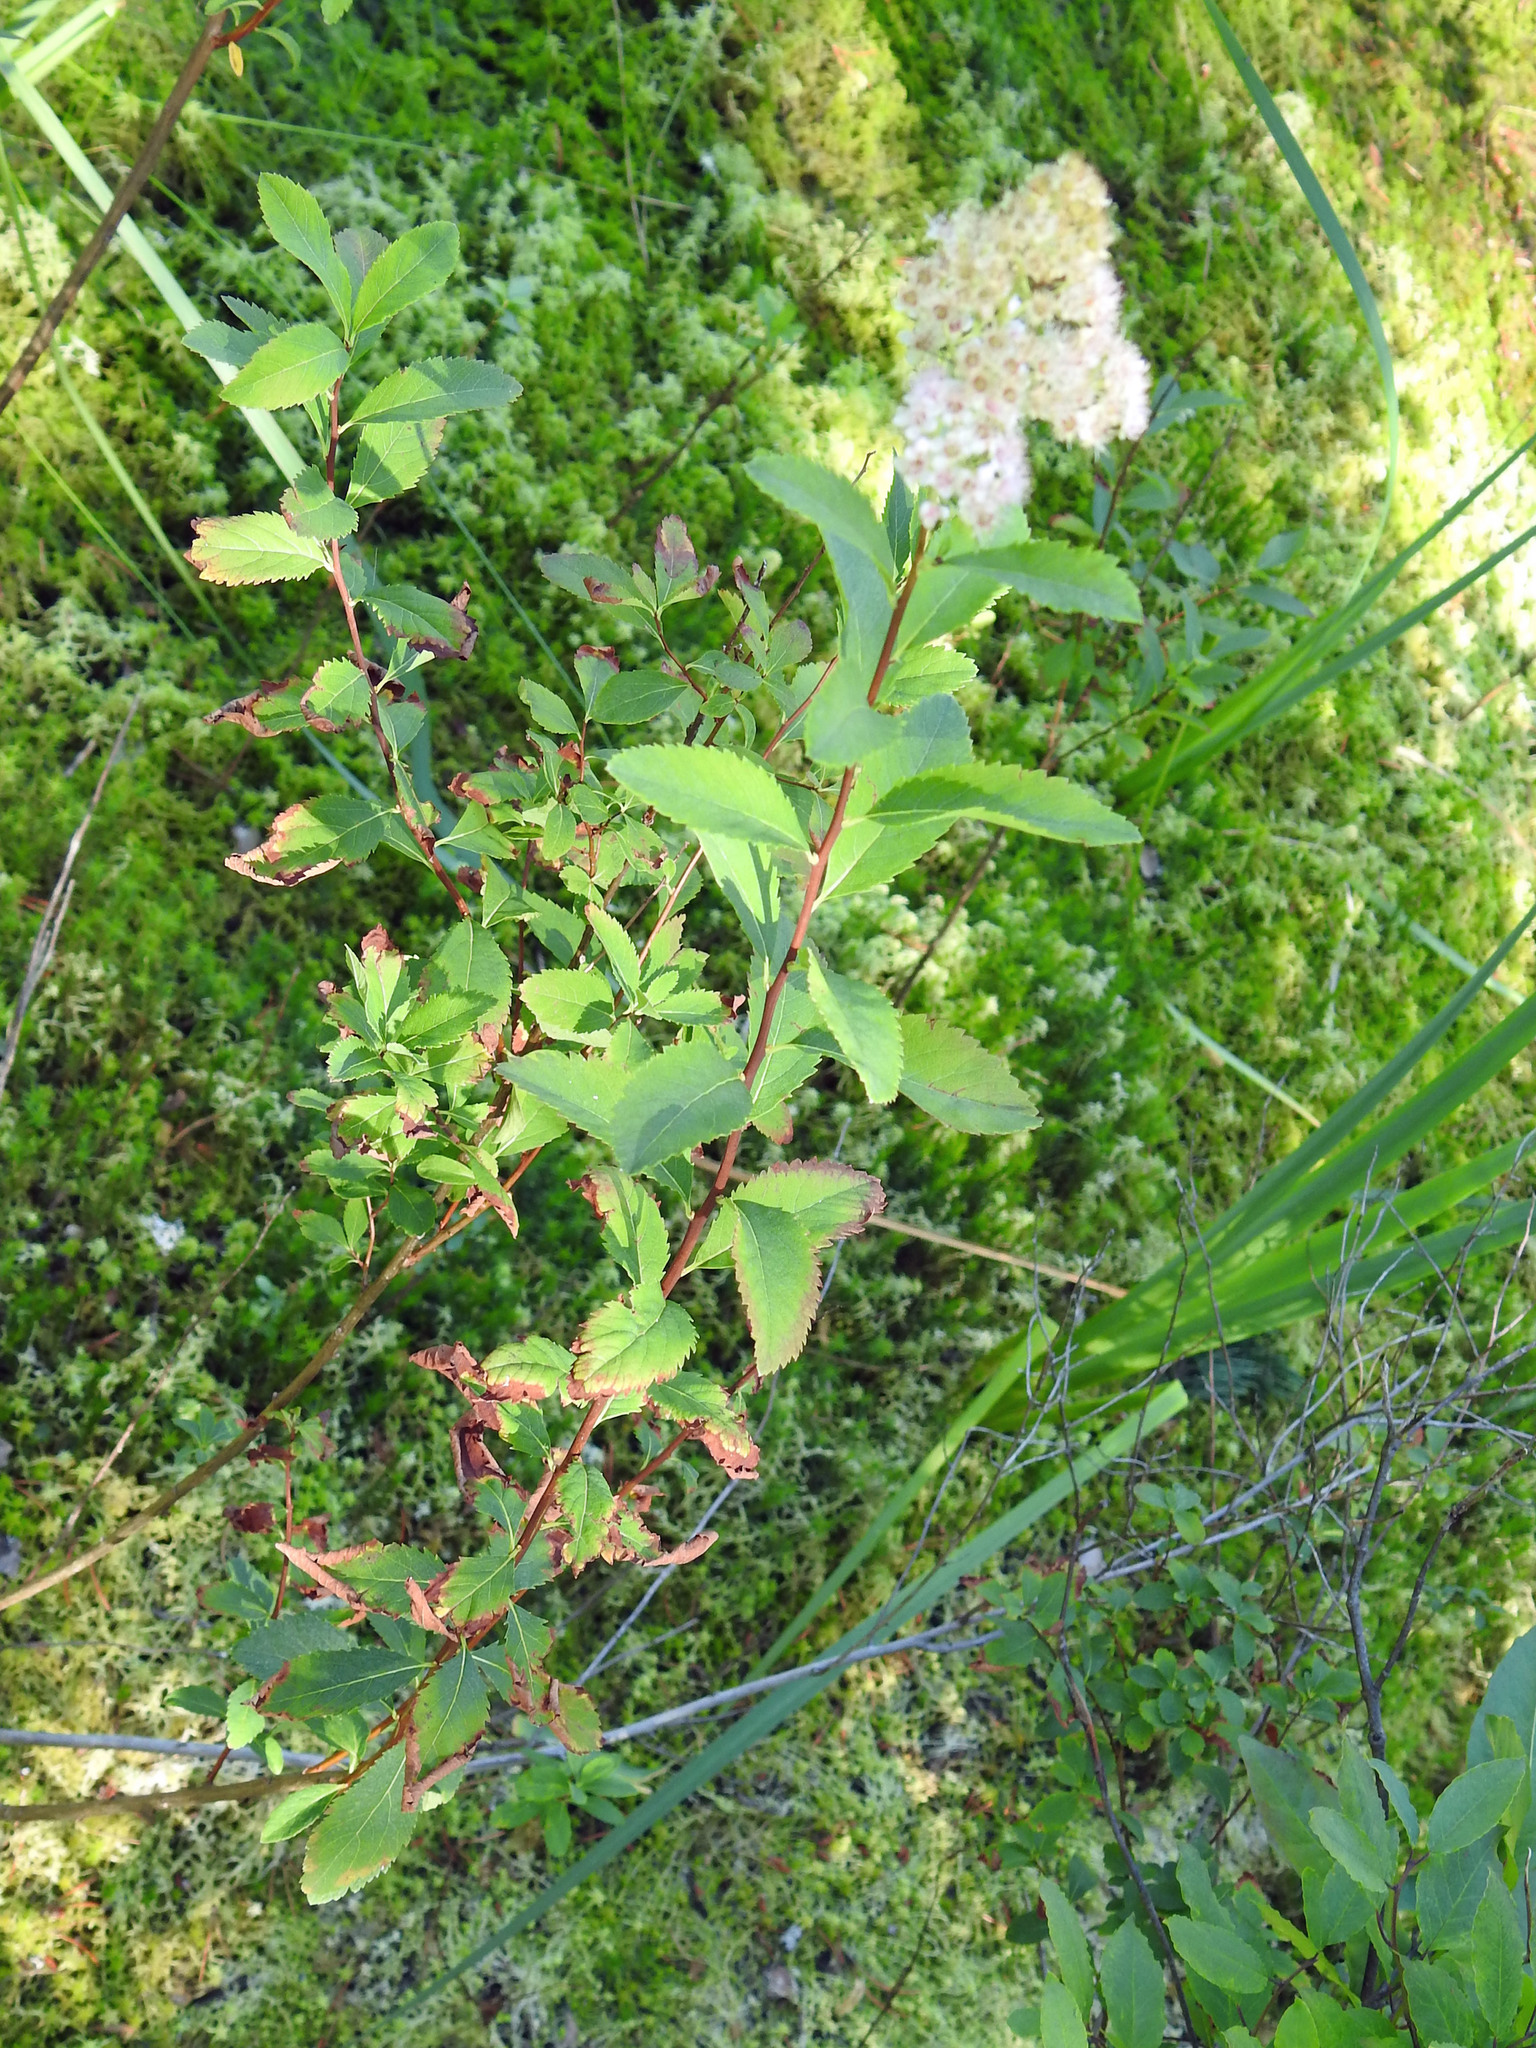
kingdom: Plantae
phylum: Tracheophyta
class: Magnoliopsida
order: Rosales
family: Rosaceae
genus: Spiraea
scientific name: Spiraea alba
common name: Pale bridewort
